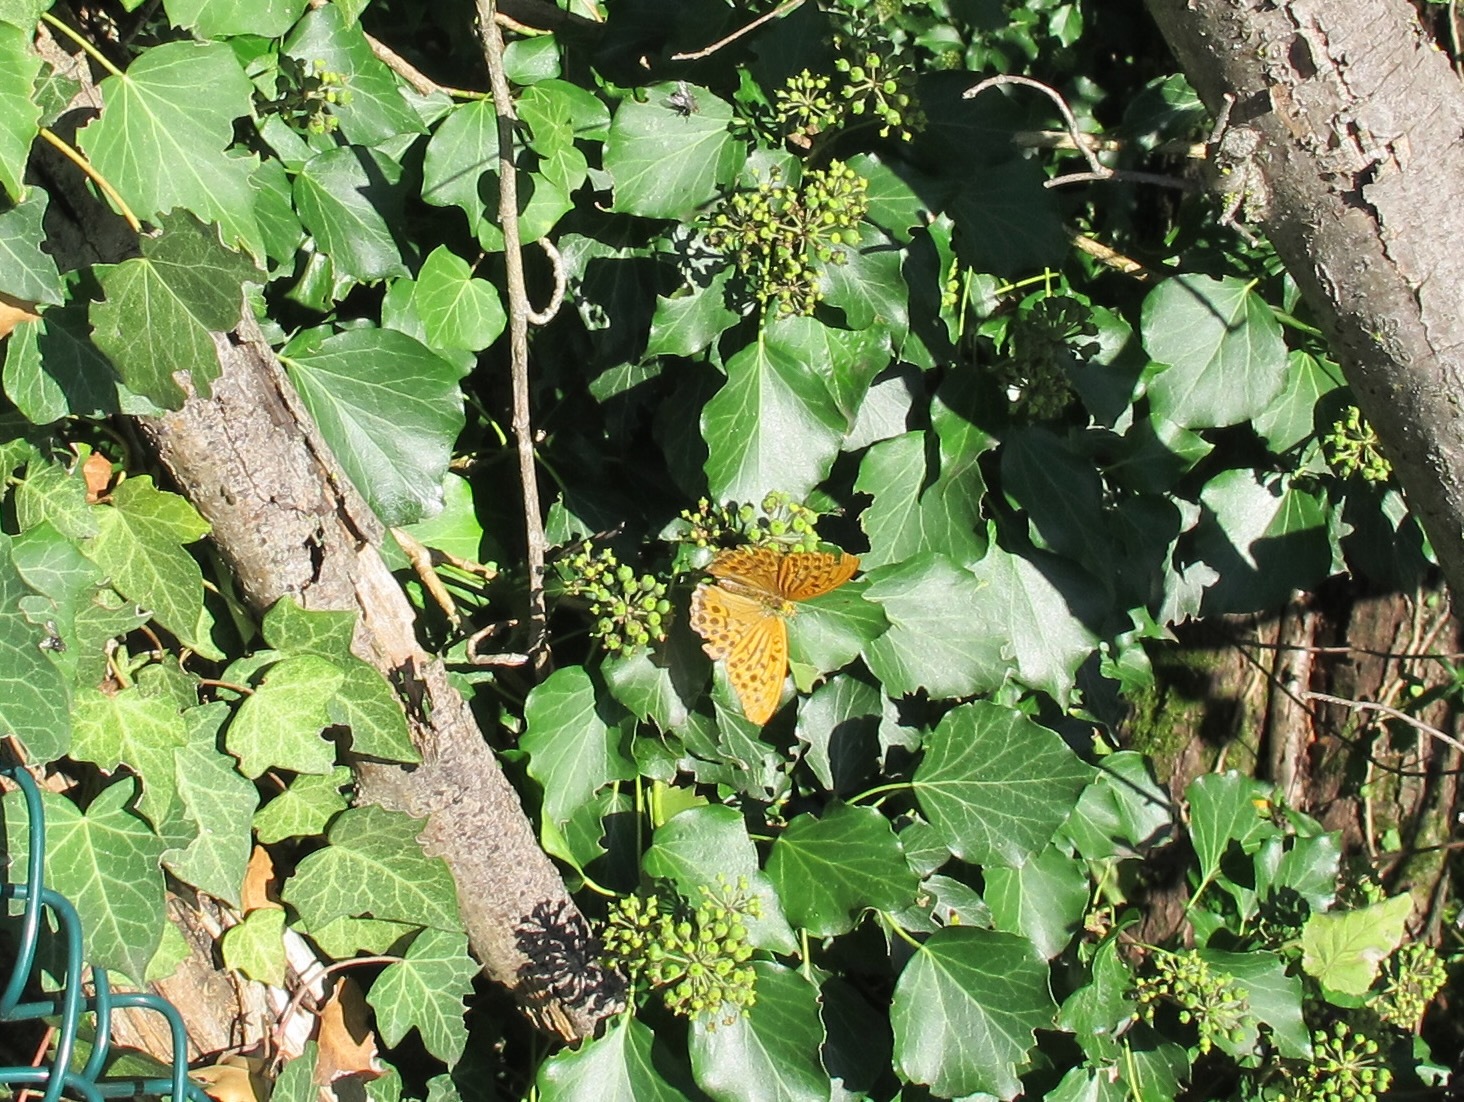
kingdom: Animalia
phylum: Arthropoda
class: Insecta
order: Lepidoptera
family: Nymphalidae
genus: Argynnis
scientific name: Argynnis paphia
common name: Silver-washed fritillary
